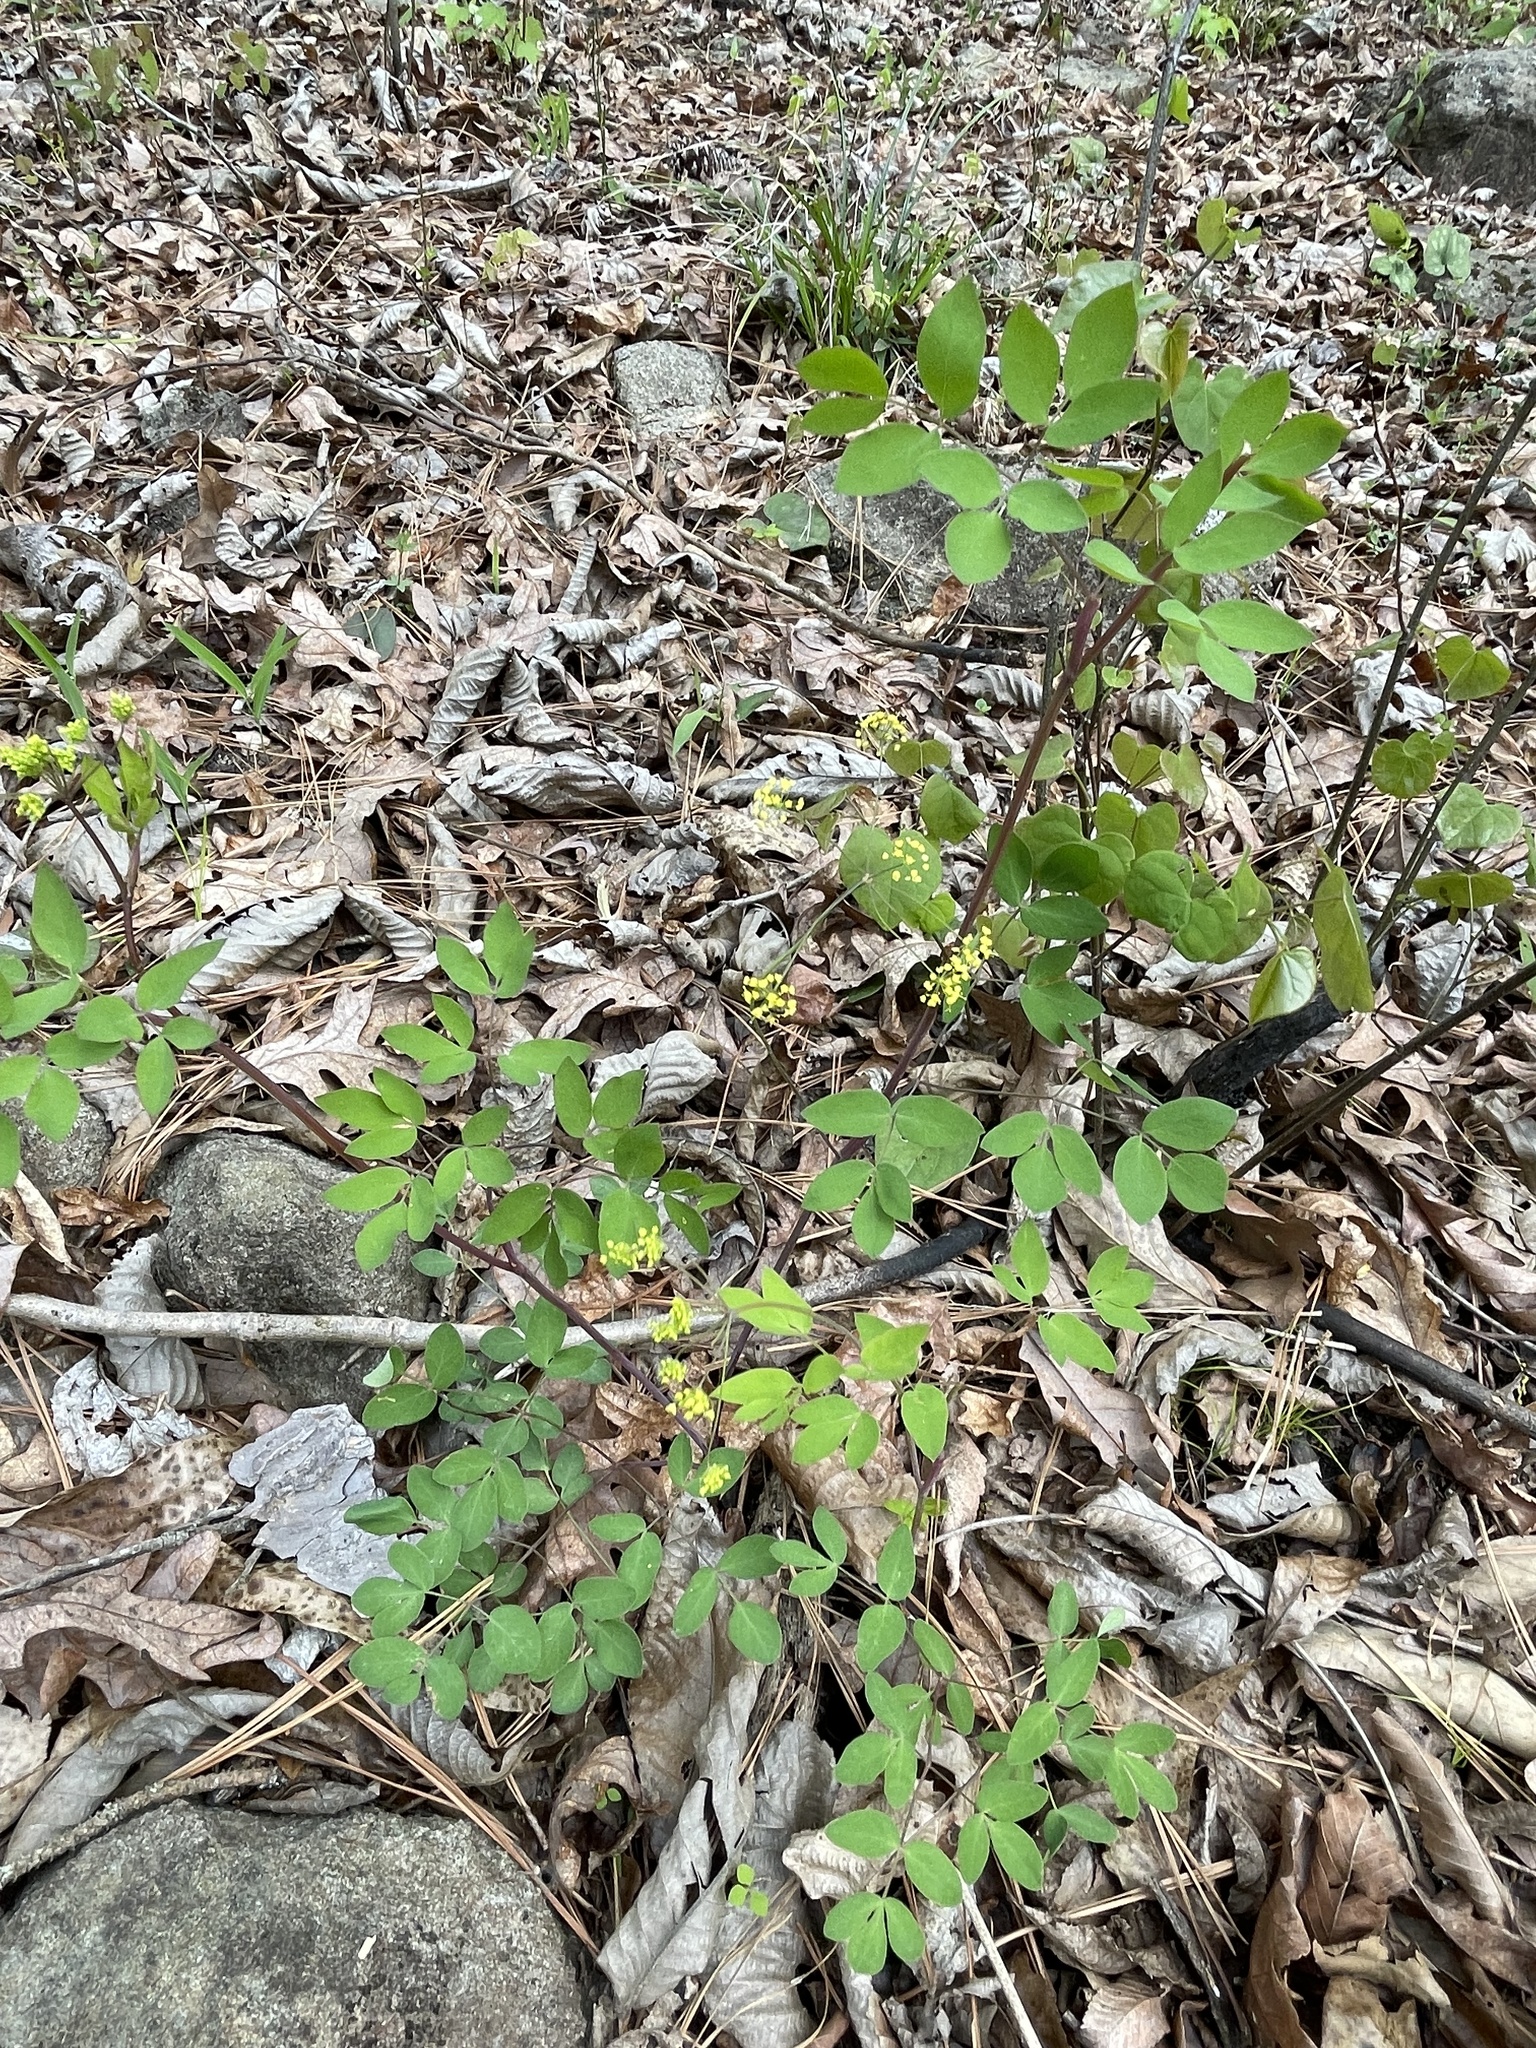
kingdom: Plantae
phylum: Tracheophyta
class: Magnoliopsida
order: Apiales
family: Apiaceae
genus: Taenidia
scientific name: Taenidia integerrima
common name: Golden alexander
